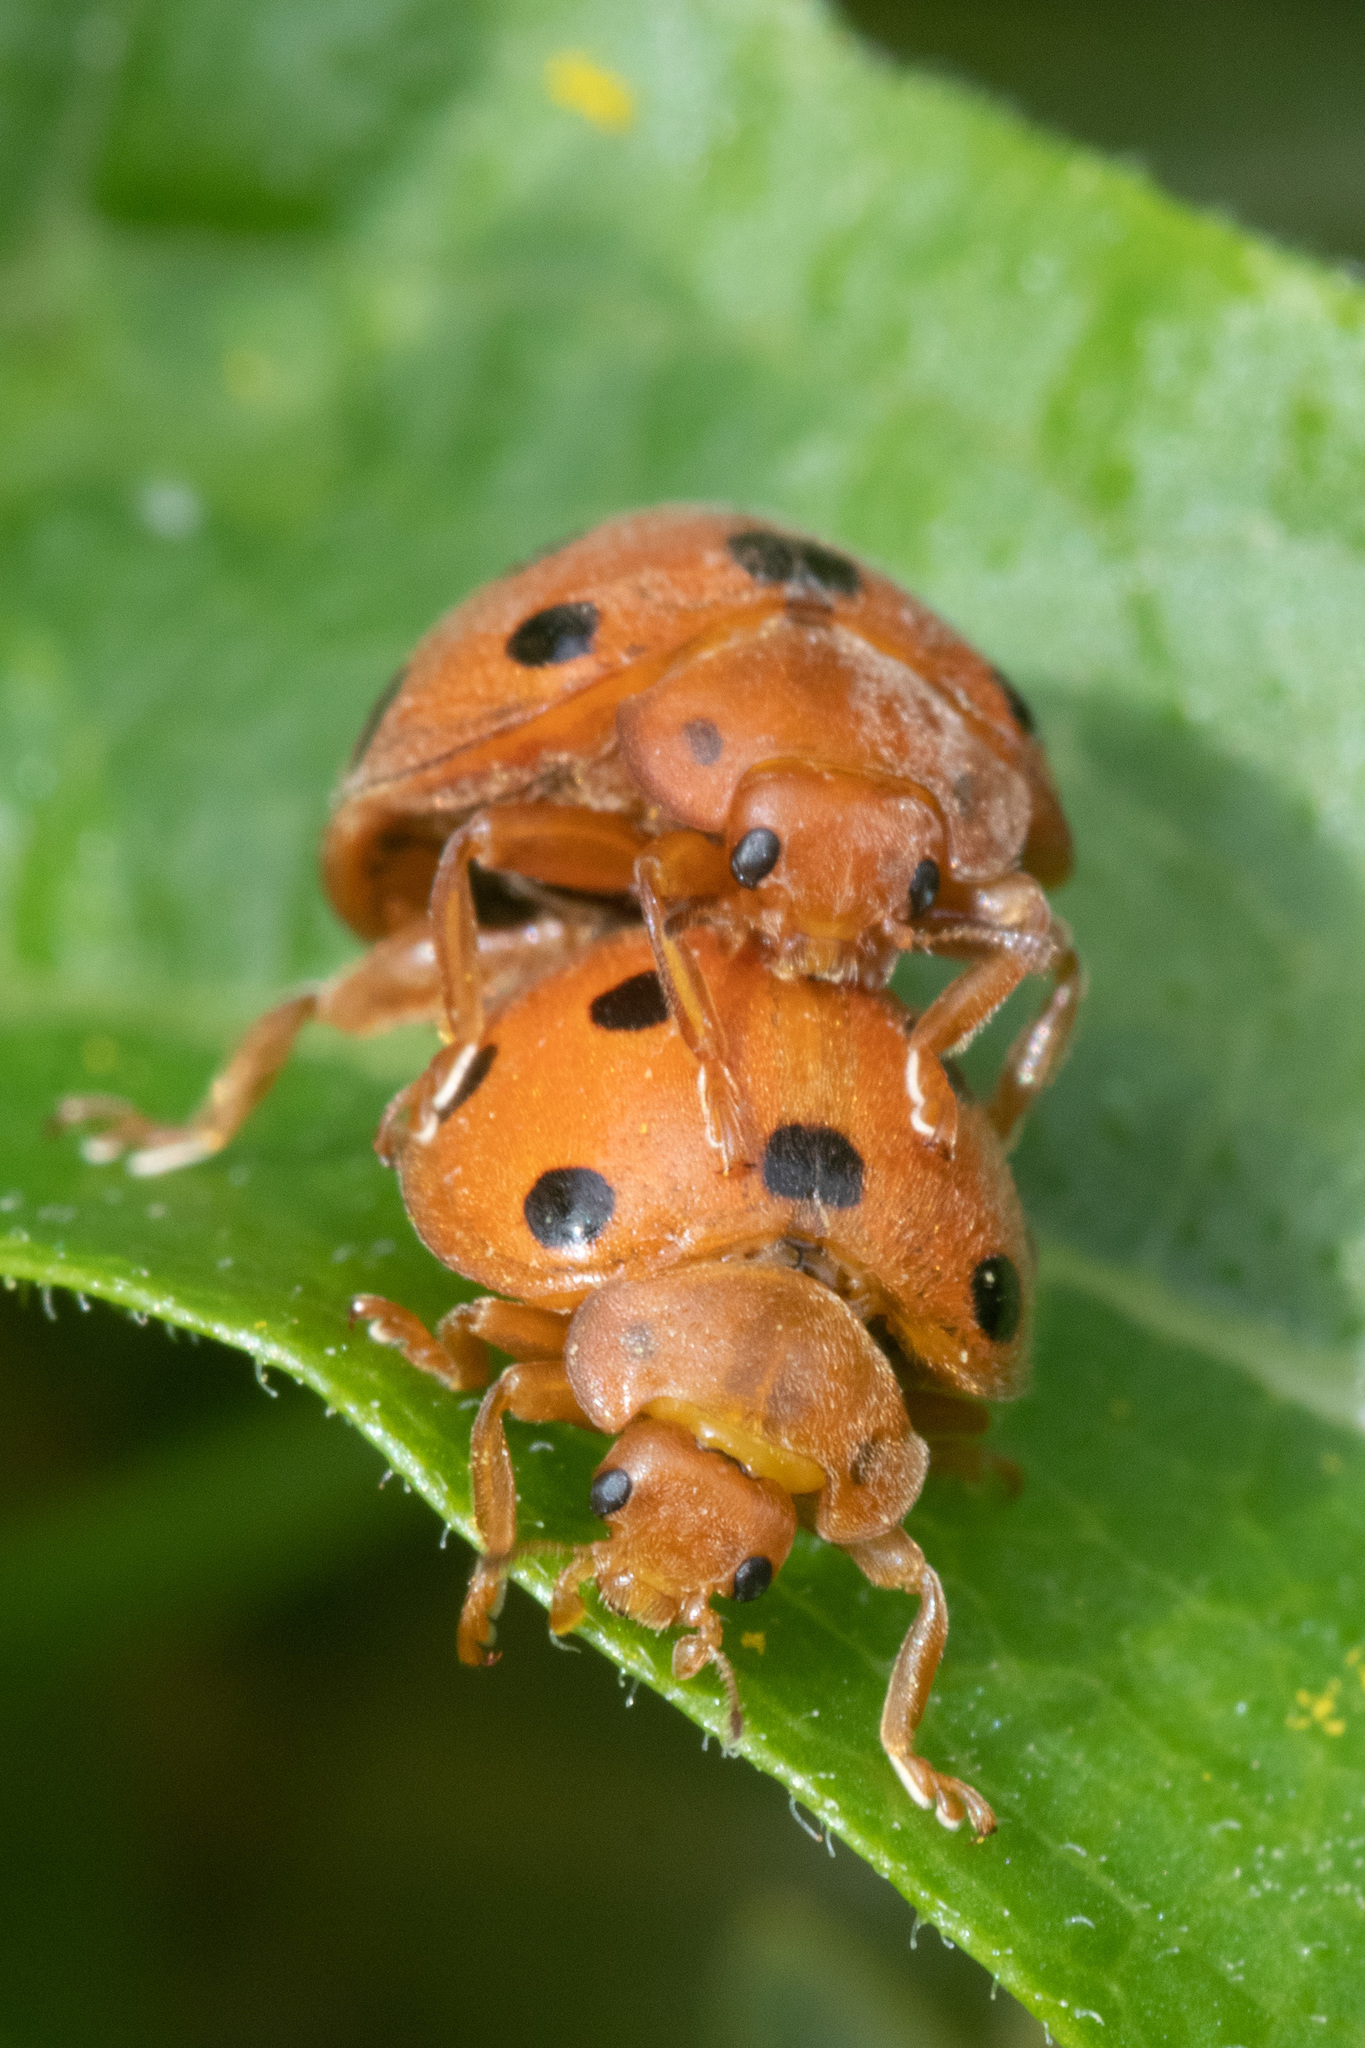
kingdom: Animalia
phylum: Arthropoda
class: Insecta
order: Coleoptera
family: Coccinellidae
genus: Henosepilachna
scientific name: Henosepilachna argus
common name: Bryony ladybird
